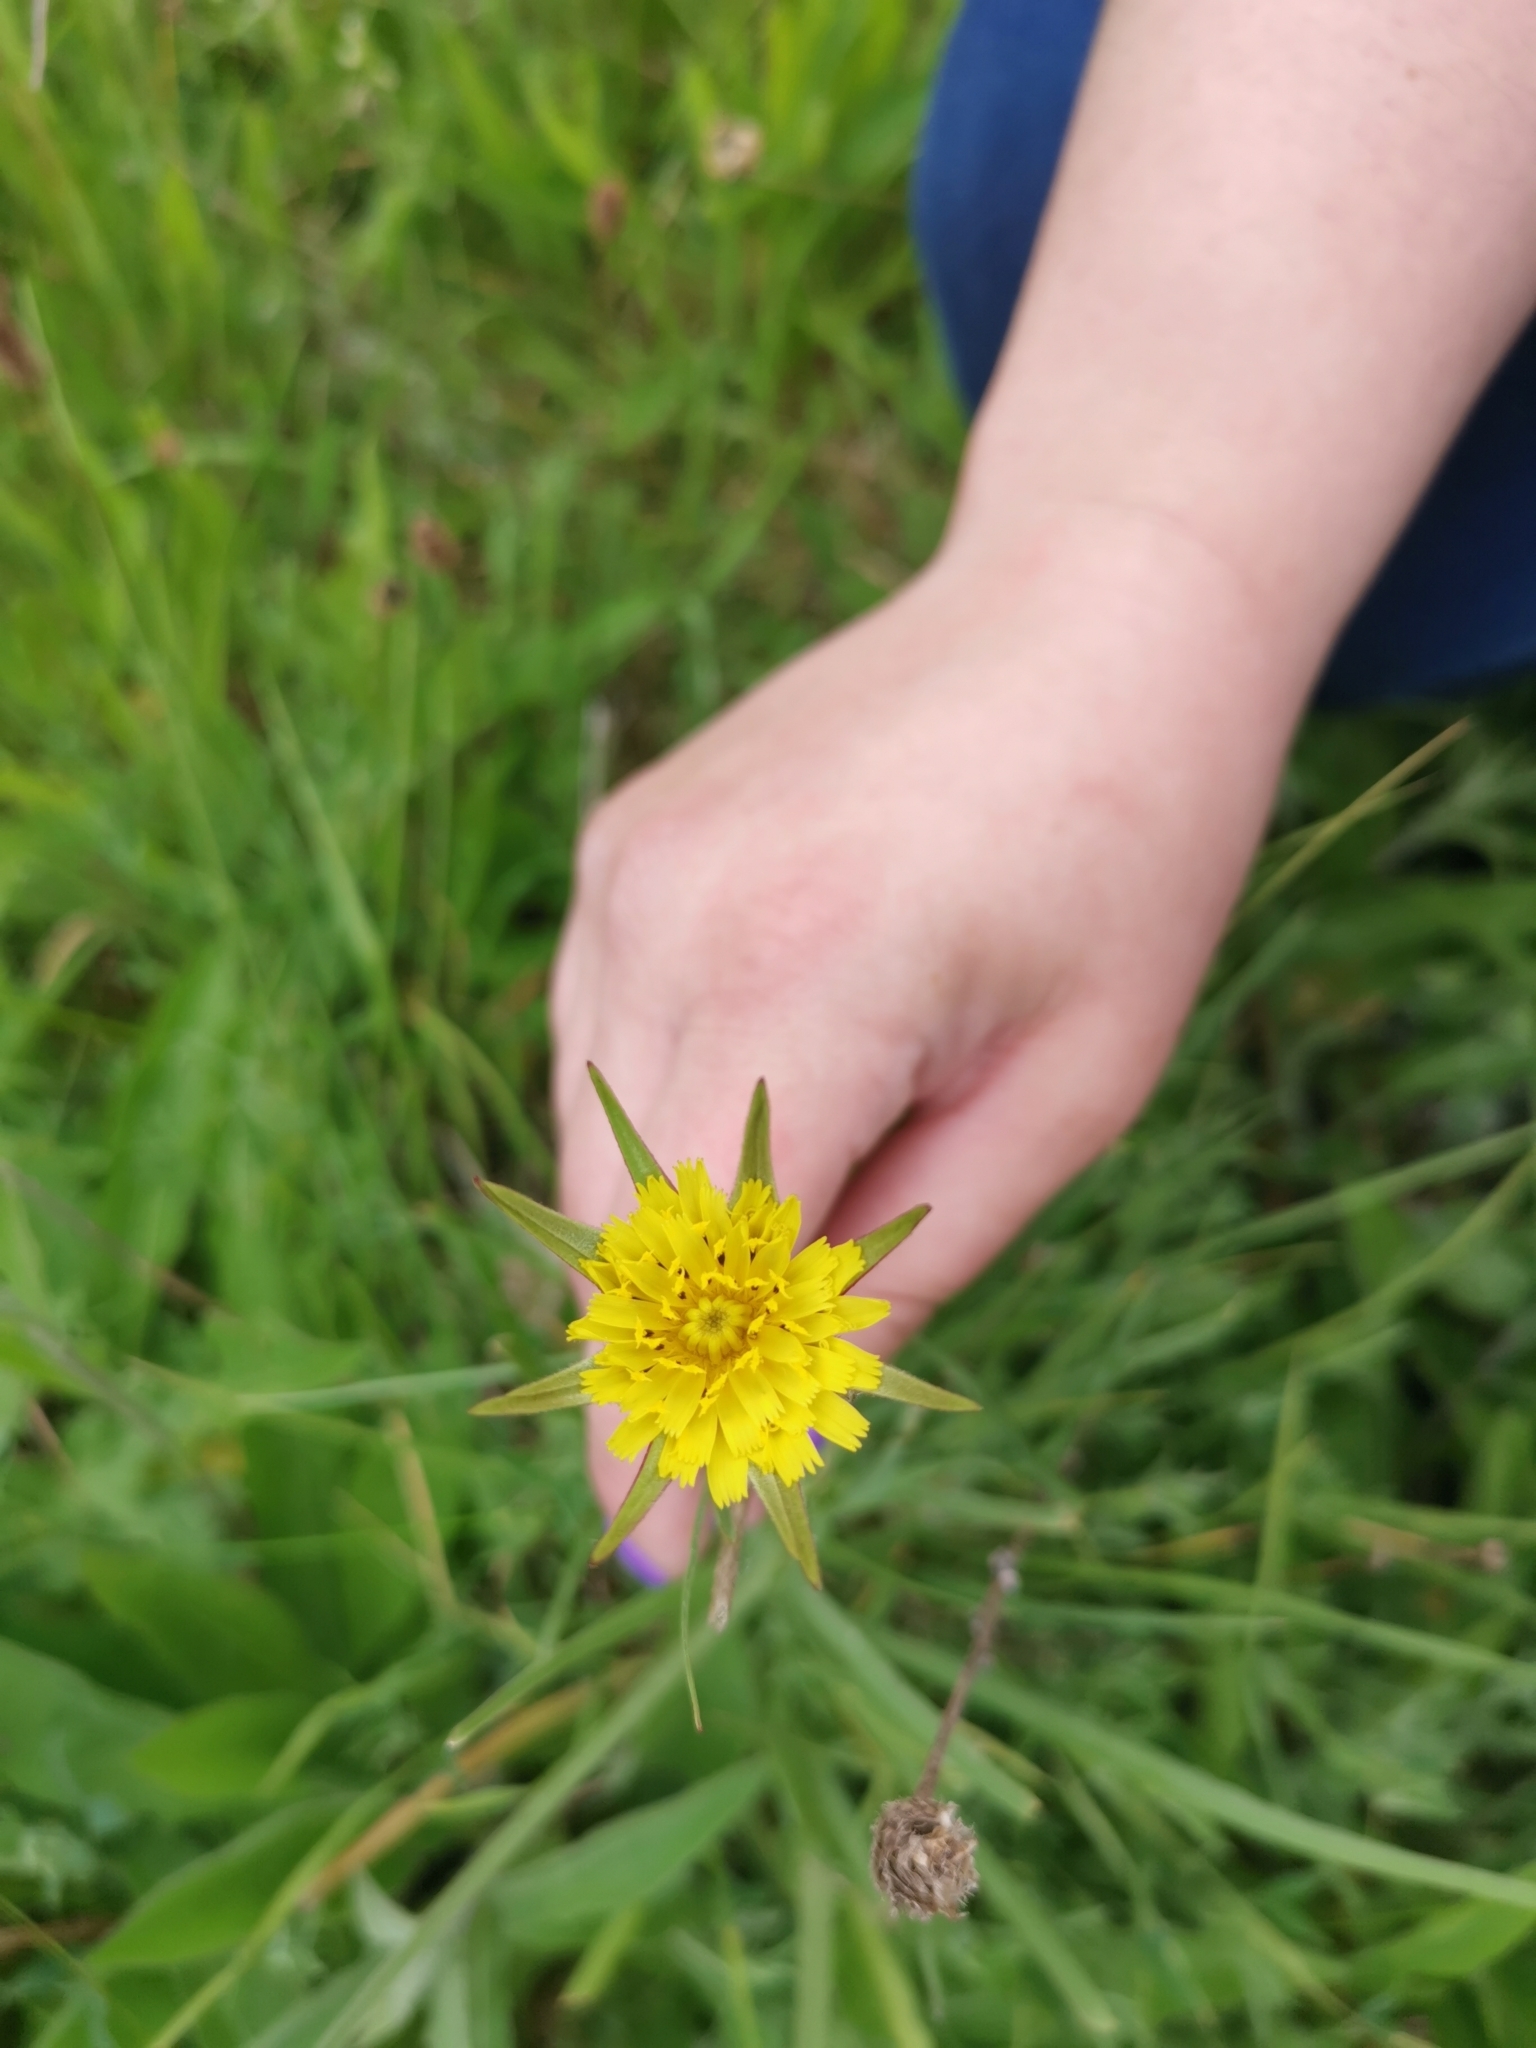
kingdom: Plantae
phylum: Tracheophyta
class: Magnoliopsida
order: Asterales
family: Asteraceae
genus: Tragopogon
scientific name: Tragopogon pratensis
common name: Goat's-beard
